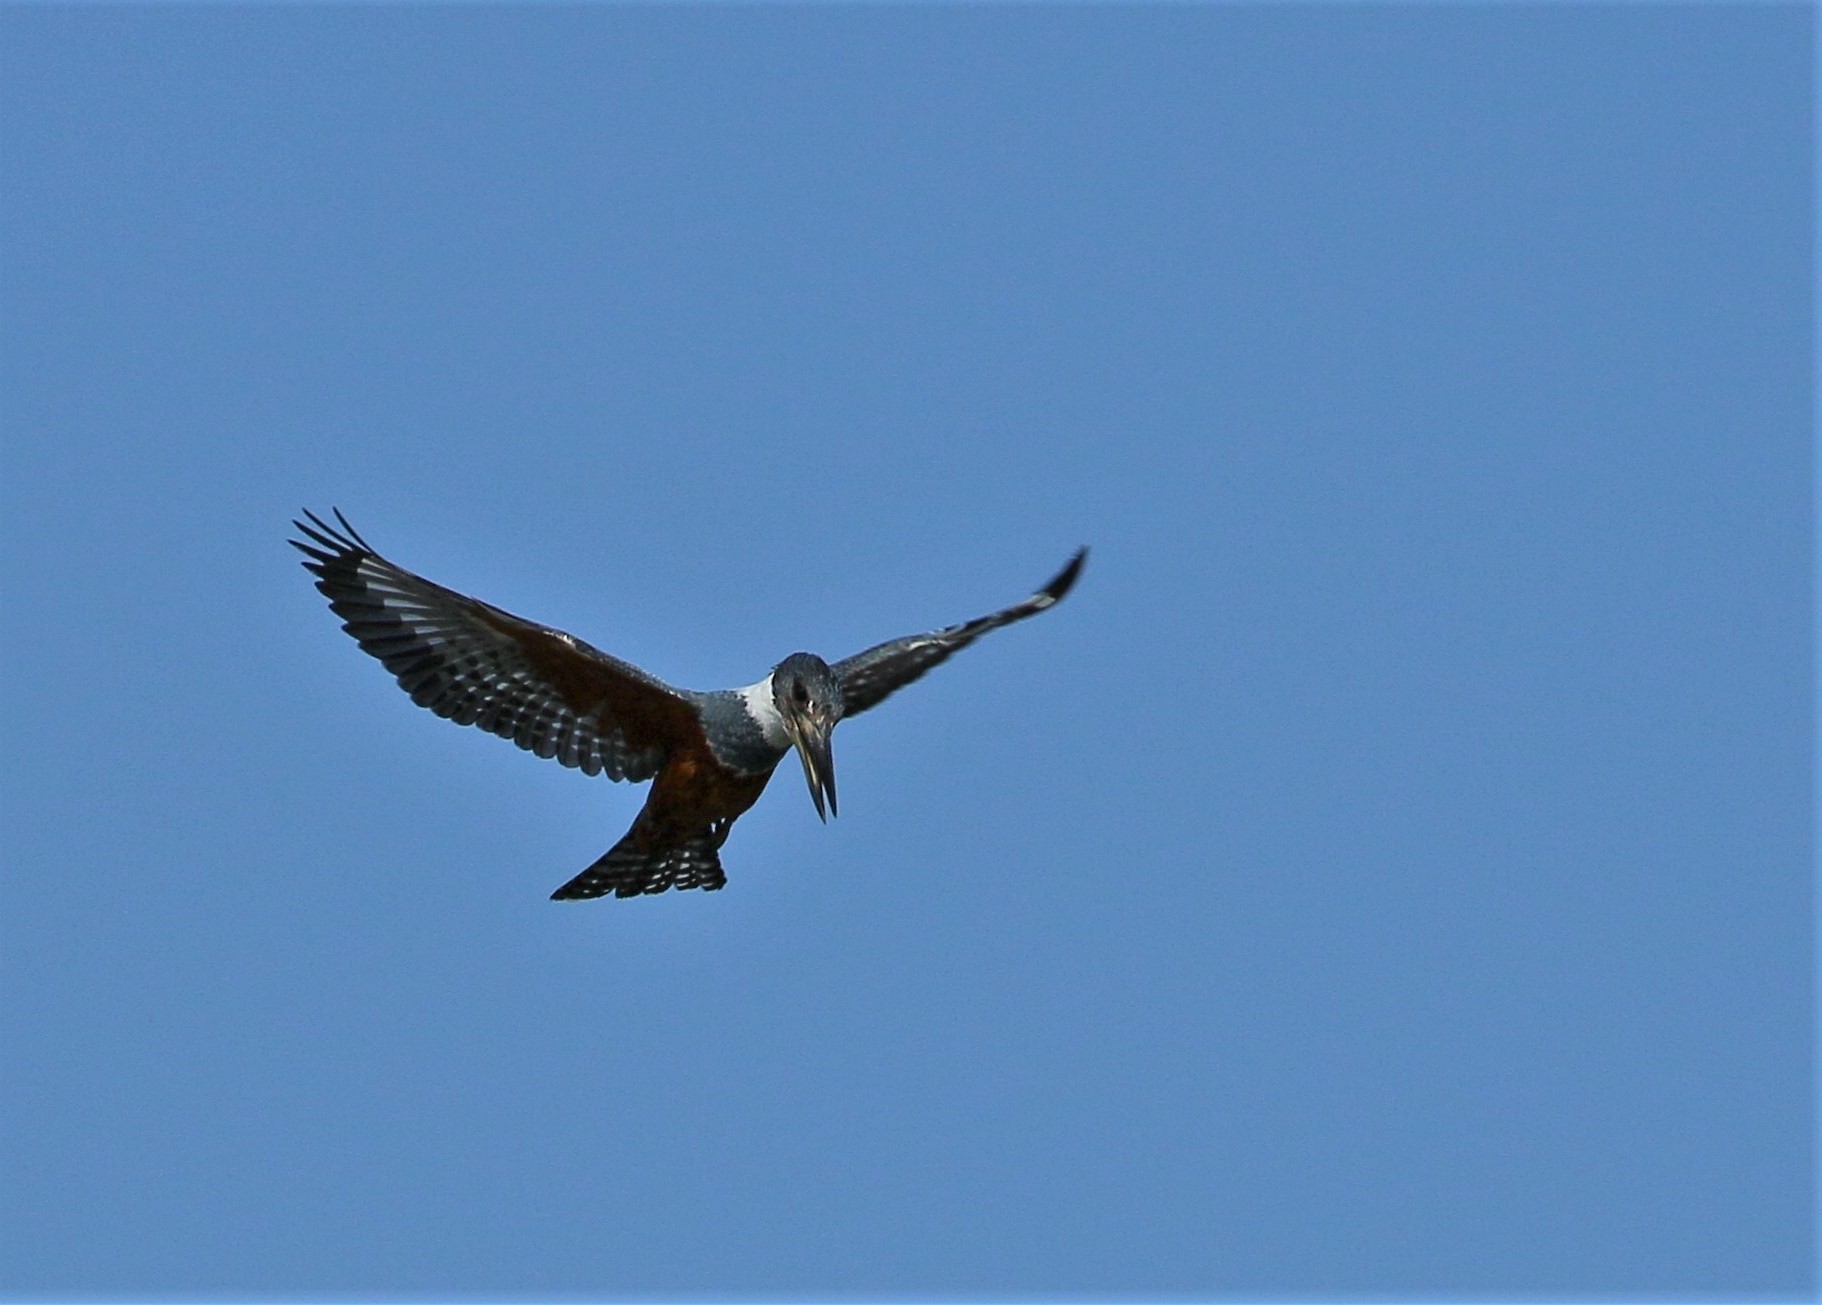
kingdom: Animalia
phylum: Chordata
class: Aves
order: Coraciiformes
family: Alcedinidae
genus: Megaceryle
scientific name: Megaceryle torquata
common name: Ringed kingfisher
